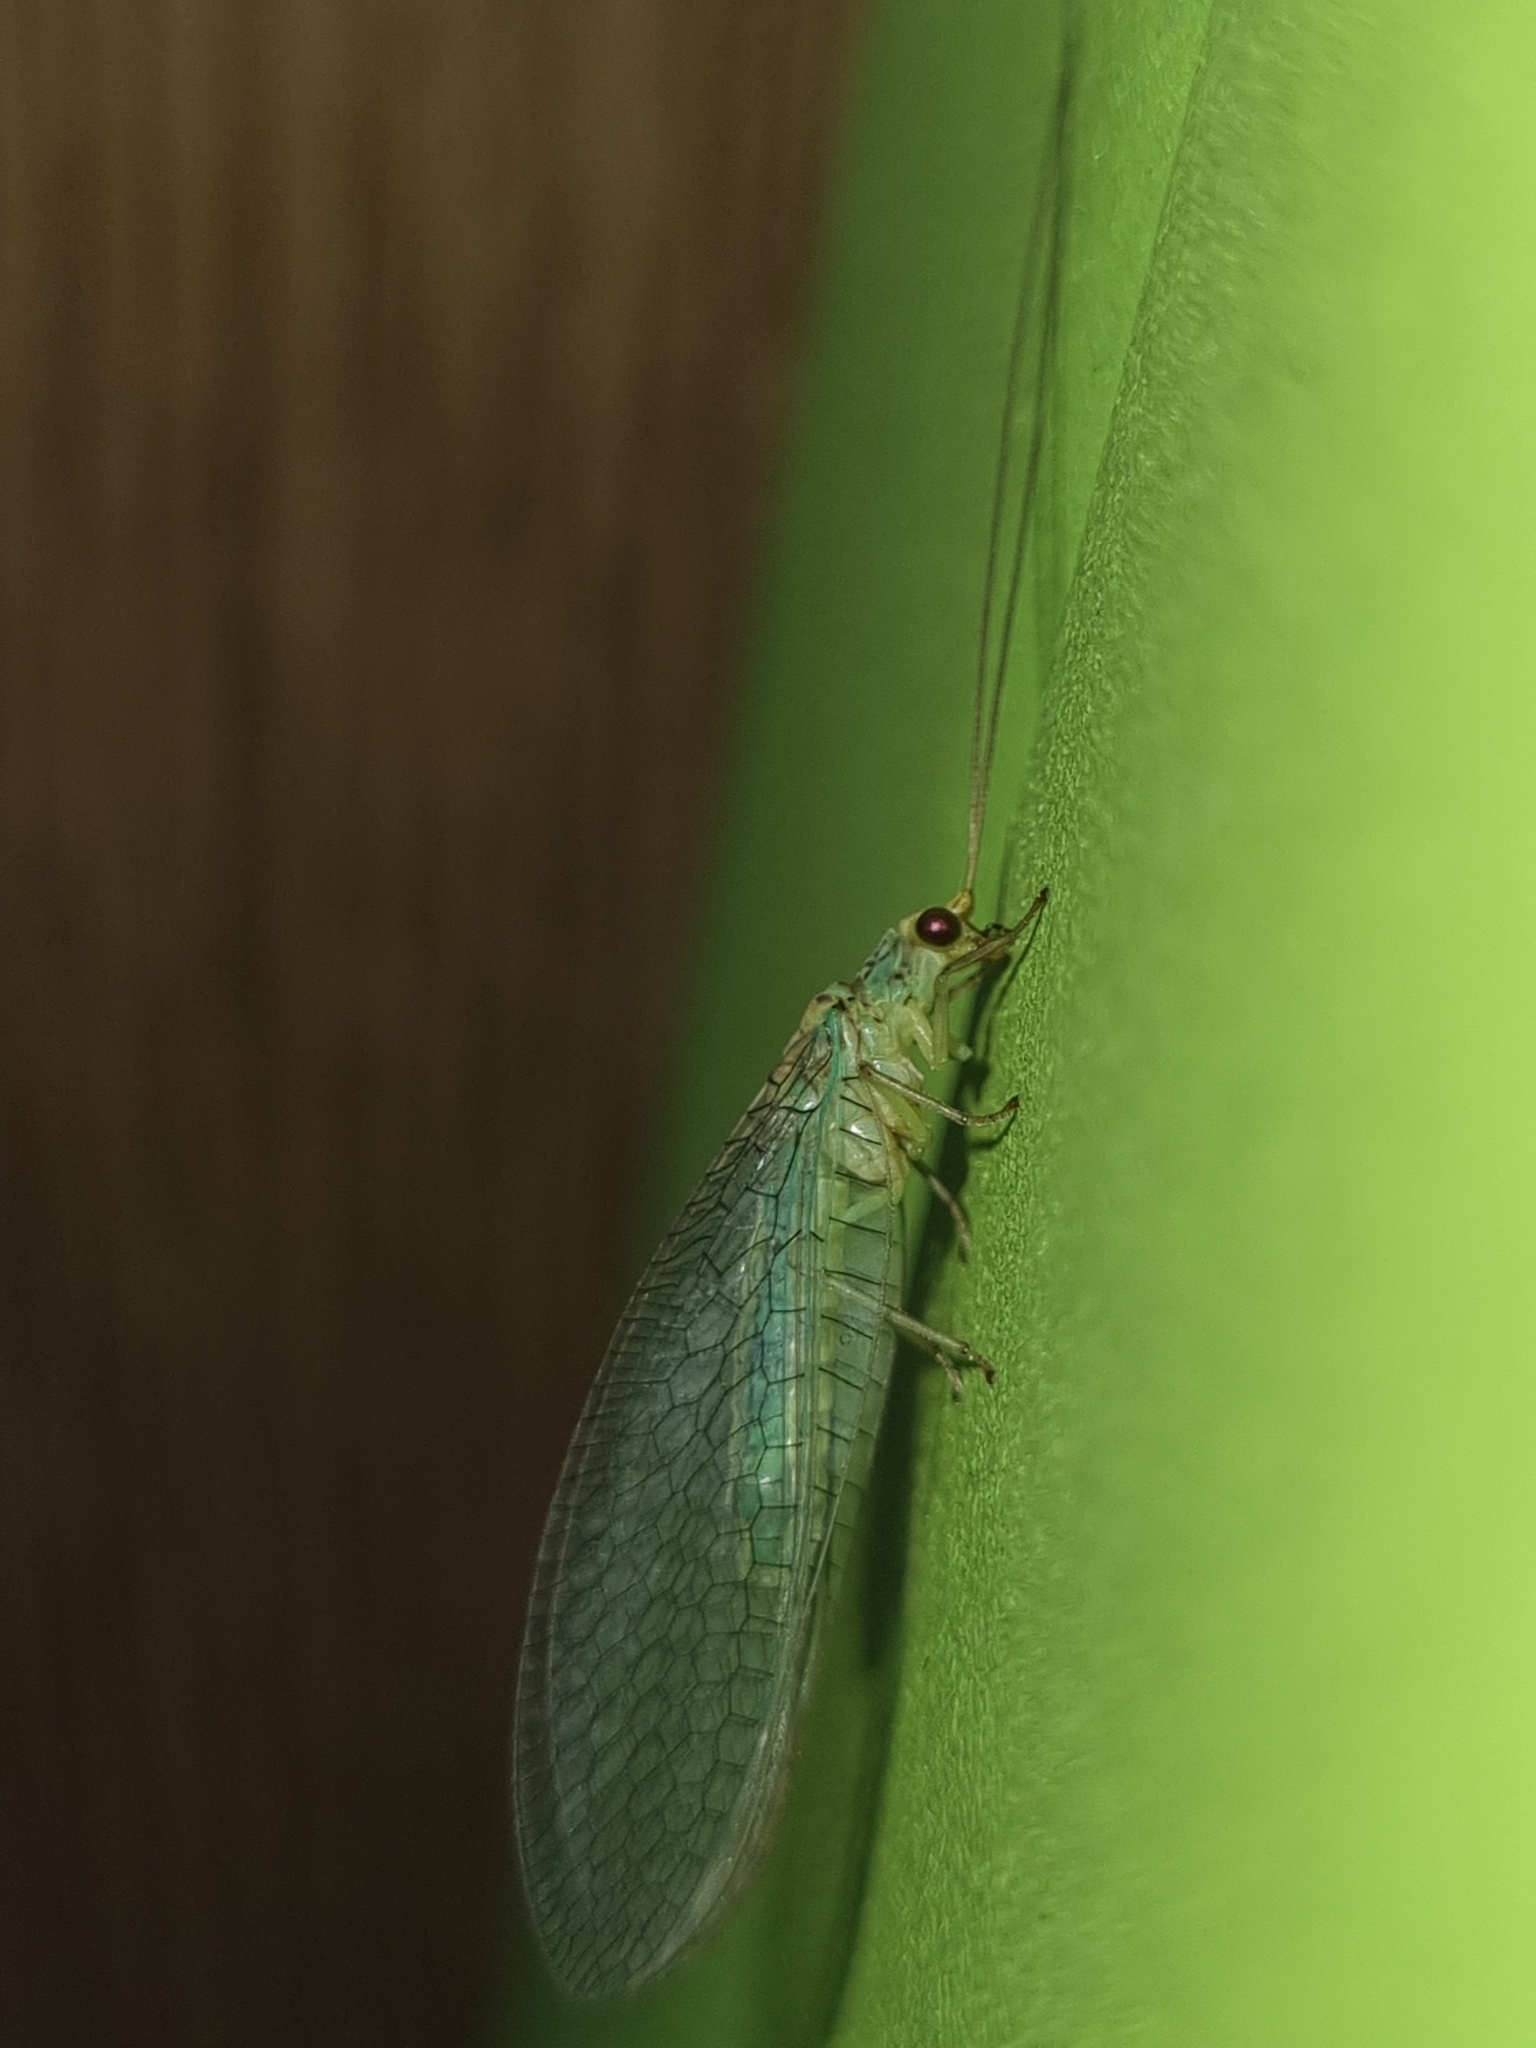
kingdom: Animalia
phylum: Arthropoda
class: Insecta
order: Neuroptera
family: Chrysopidae
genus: Dictyochrysa
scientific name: Dictyochrysa peterseni
